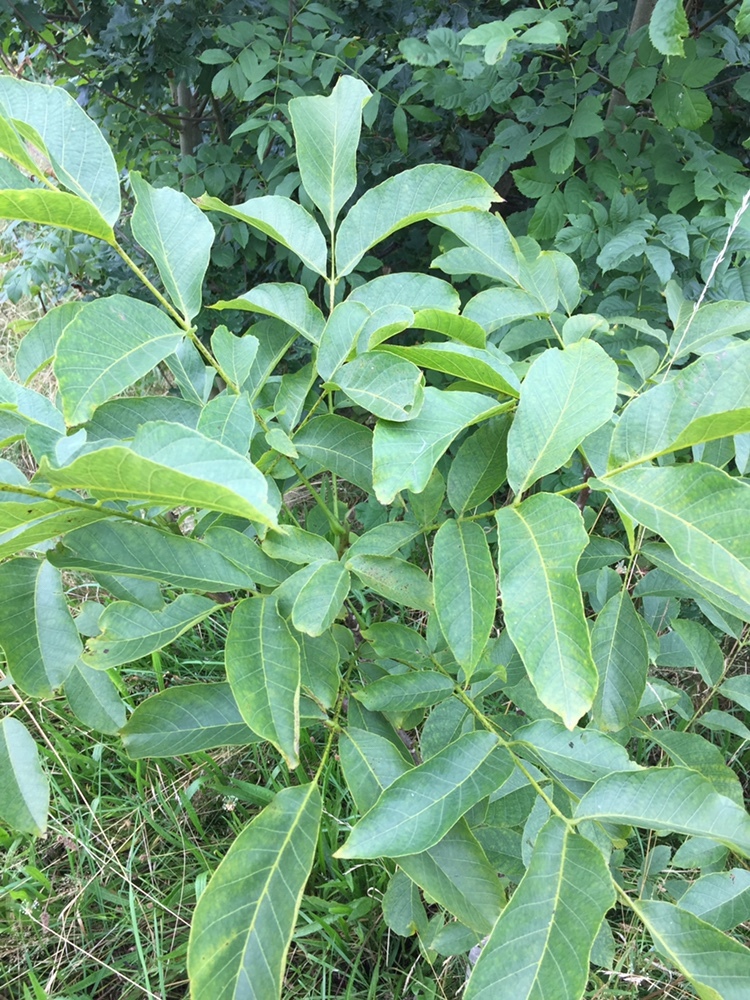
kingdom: Plantae
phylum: Tracheophyta
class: Magnoliopsida
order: Fagales
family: Juglandaceae
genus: Juglans
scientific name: Juglans regia
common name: Walnut
